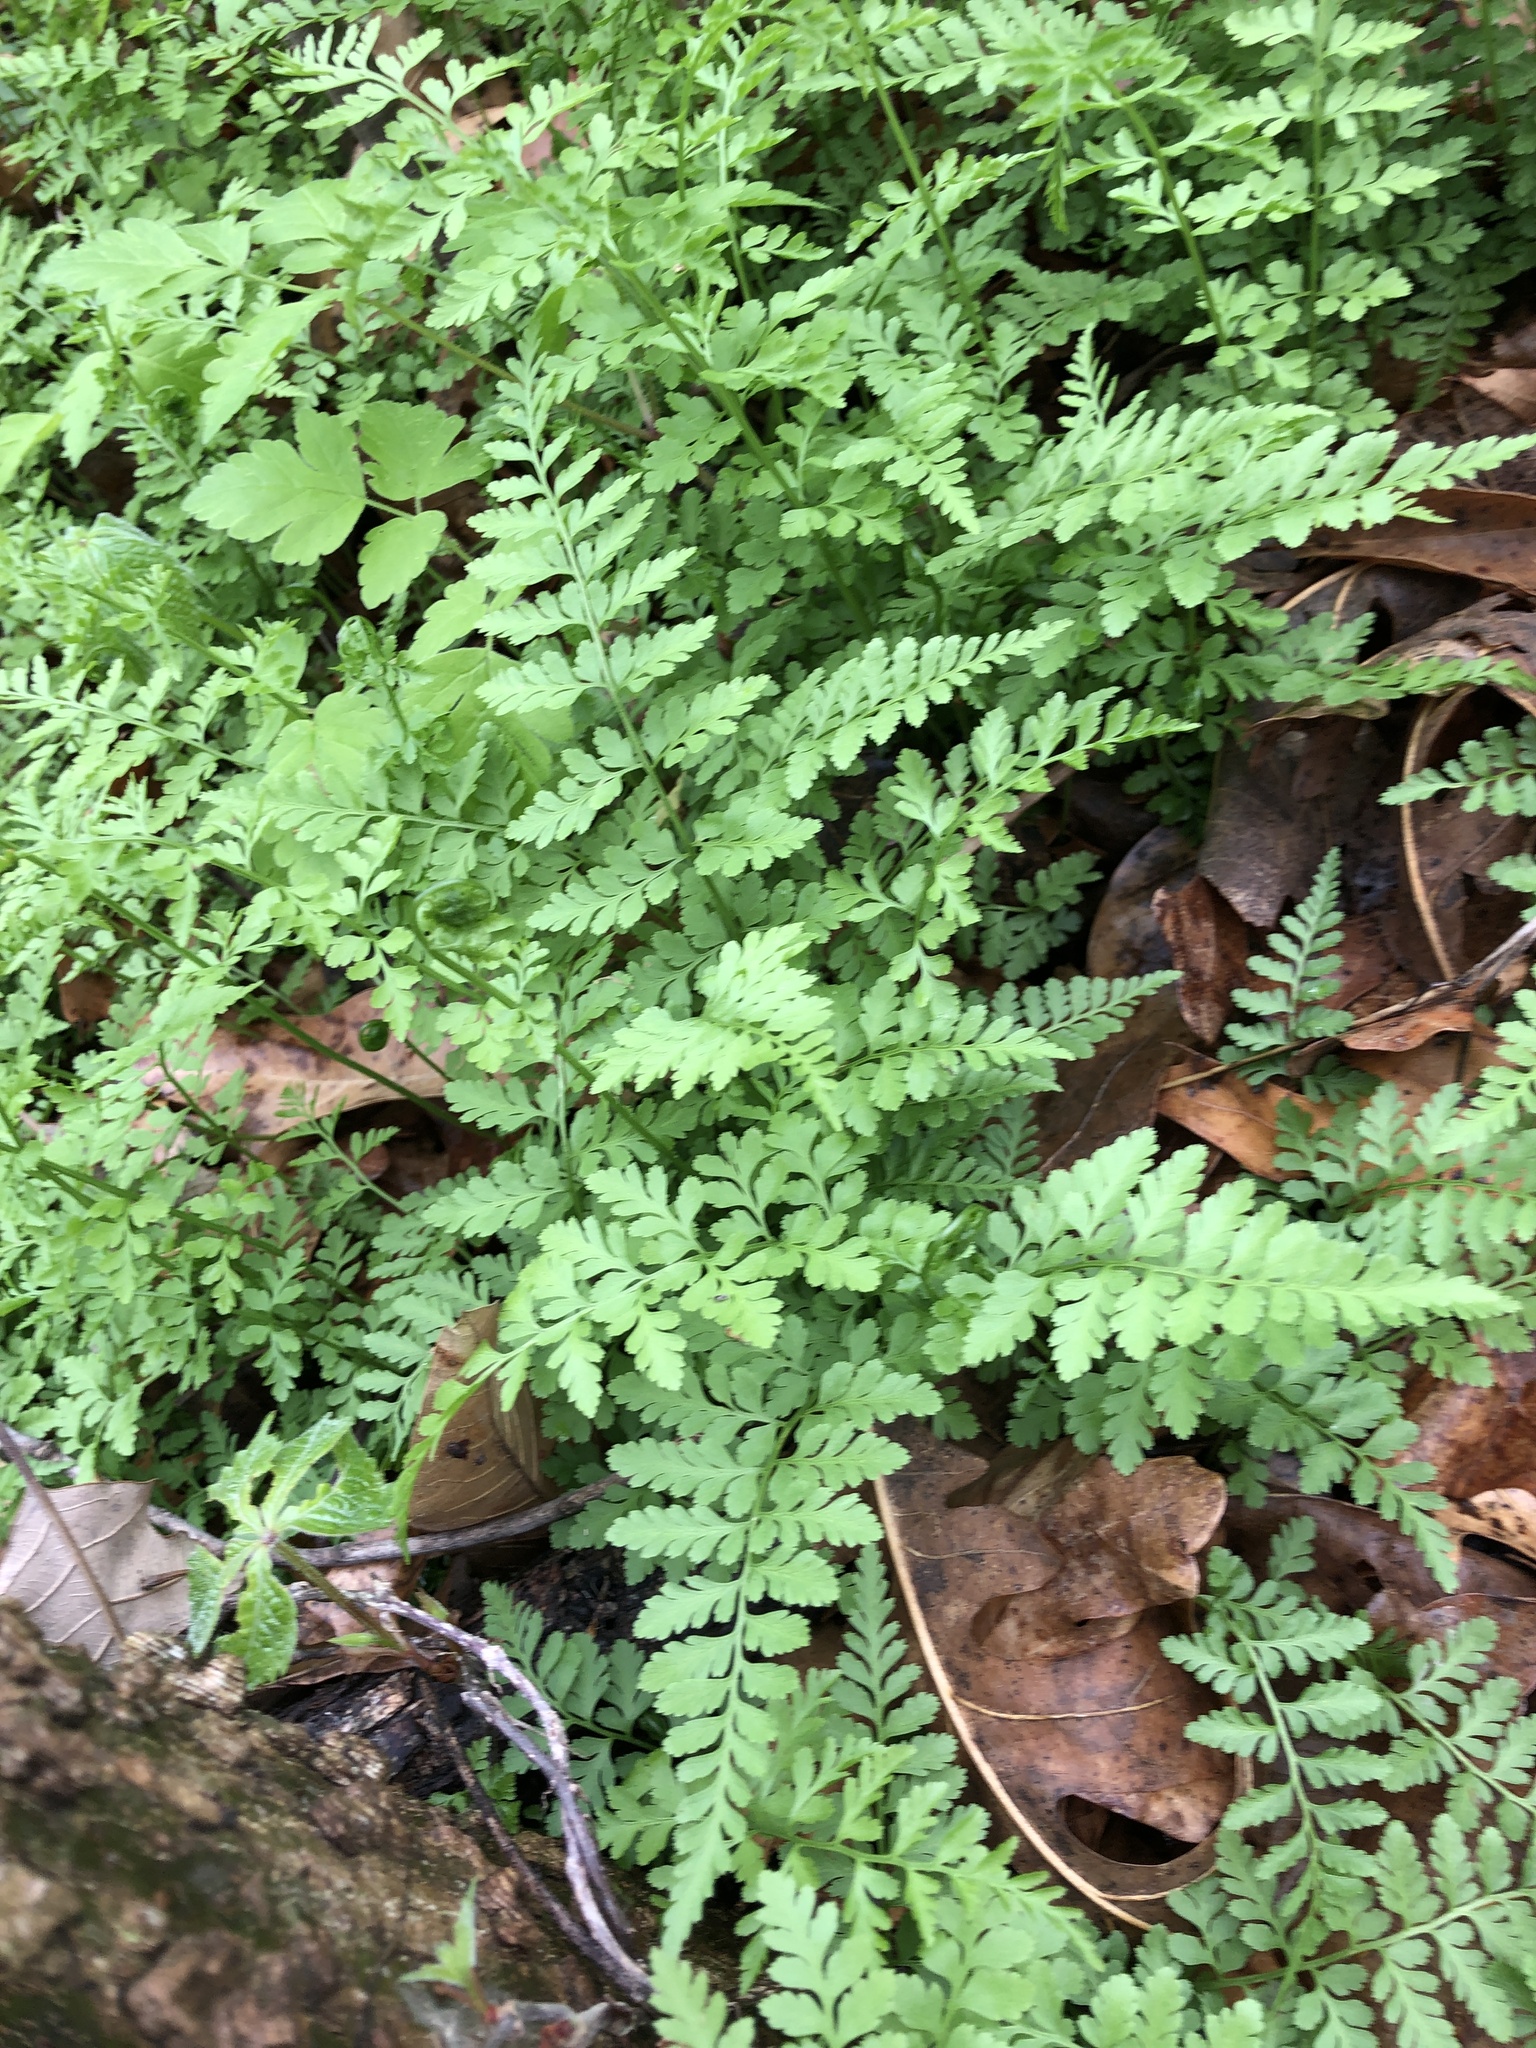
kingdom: Plantae
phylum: Tracheophyta
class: Polypodiopsida
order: Polypodiales
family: Cystopteridaceae
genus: Cystopteris
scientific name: Cystopteris protrusa
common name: Lowland brittle fern
